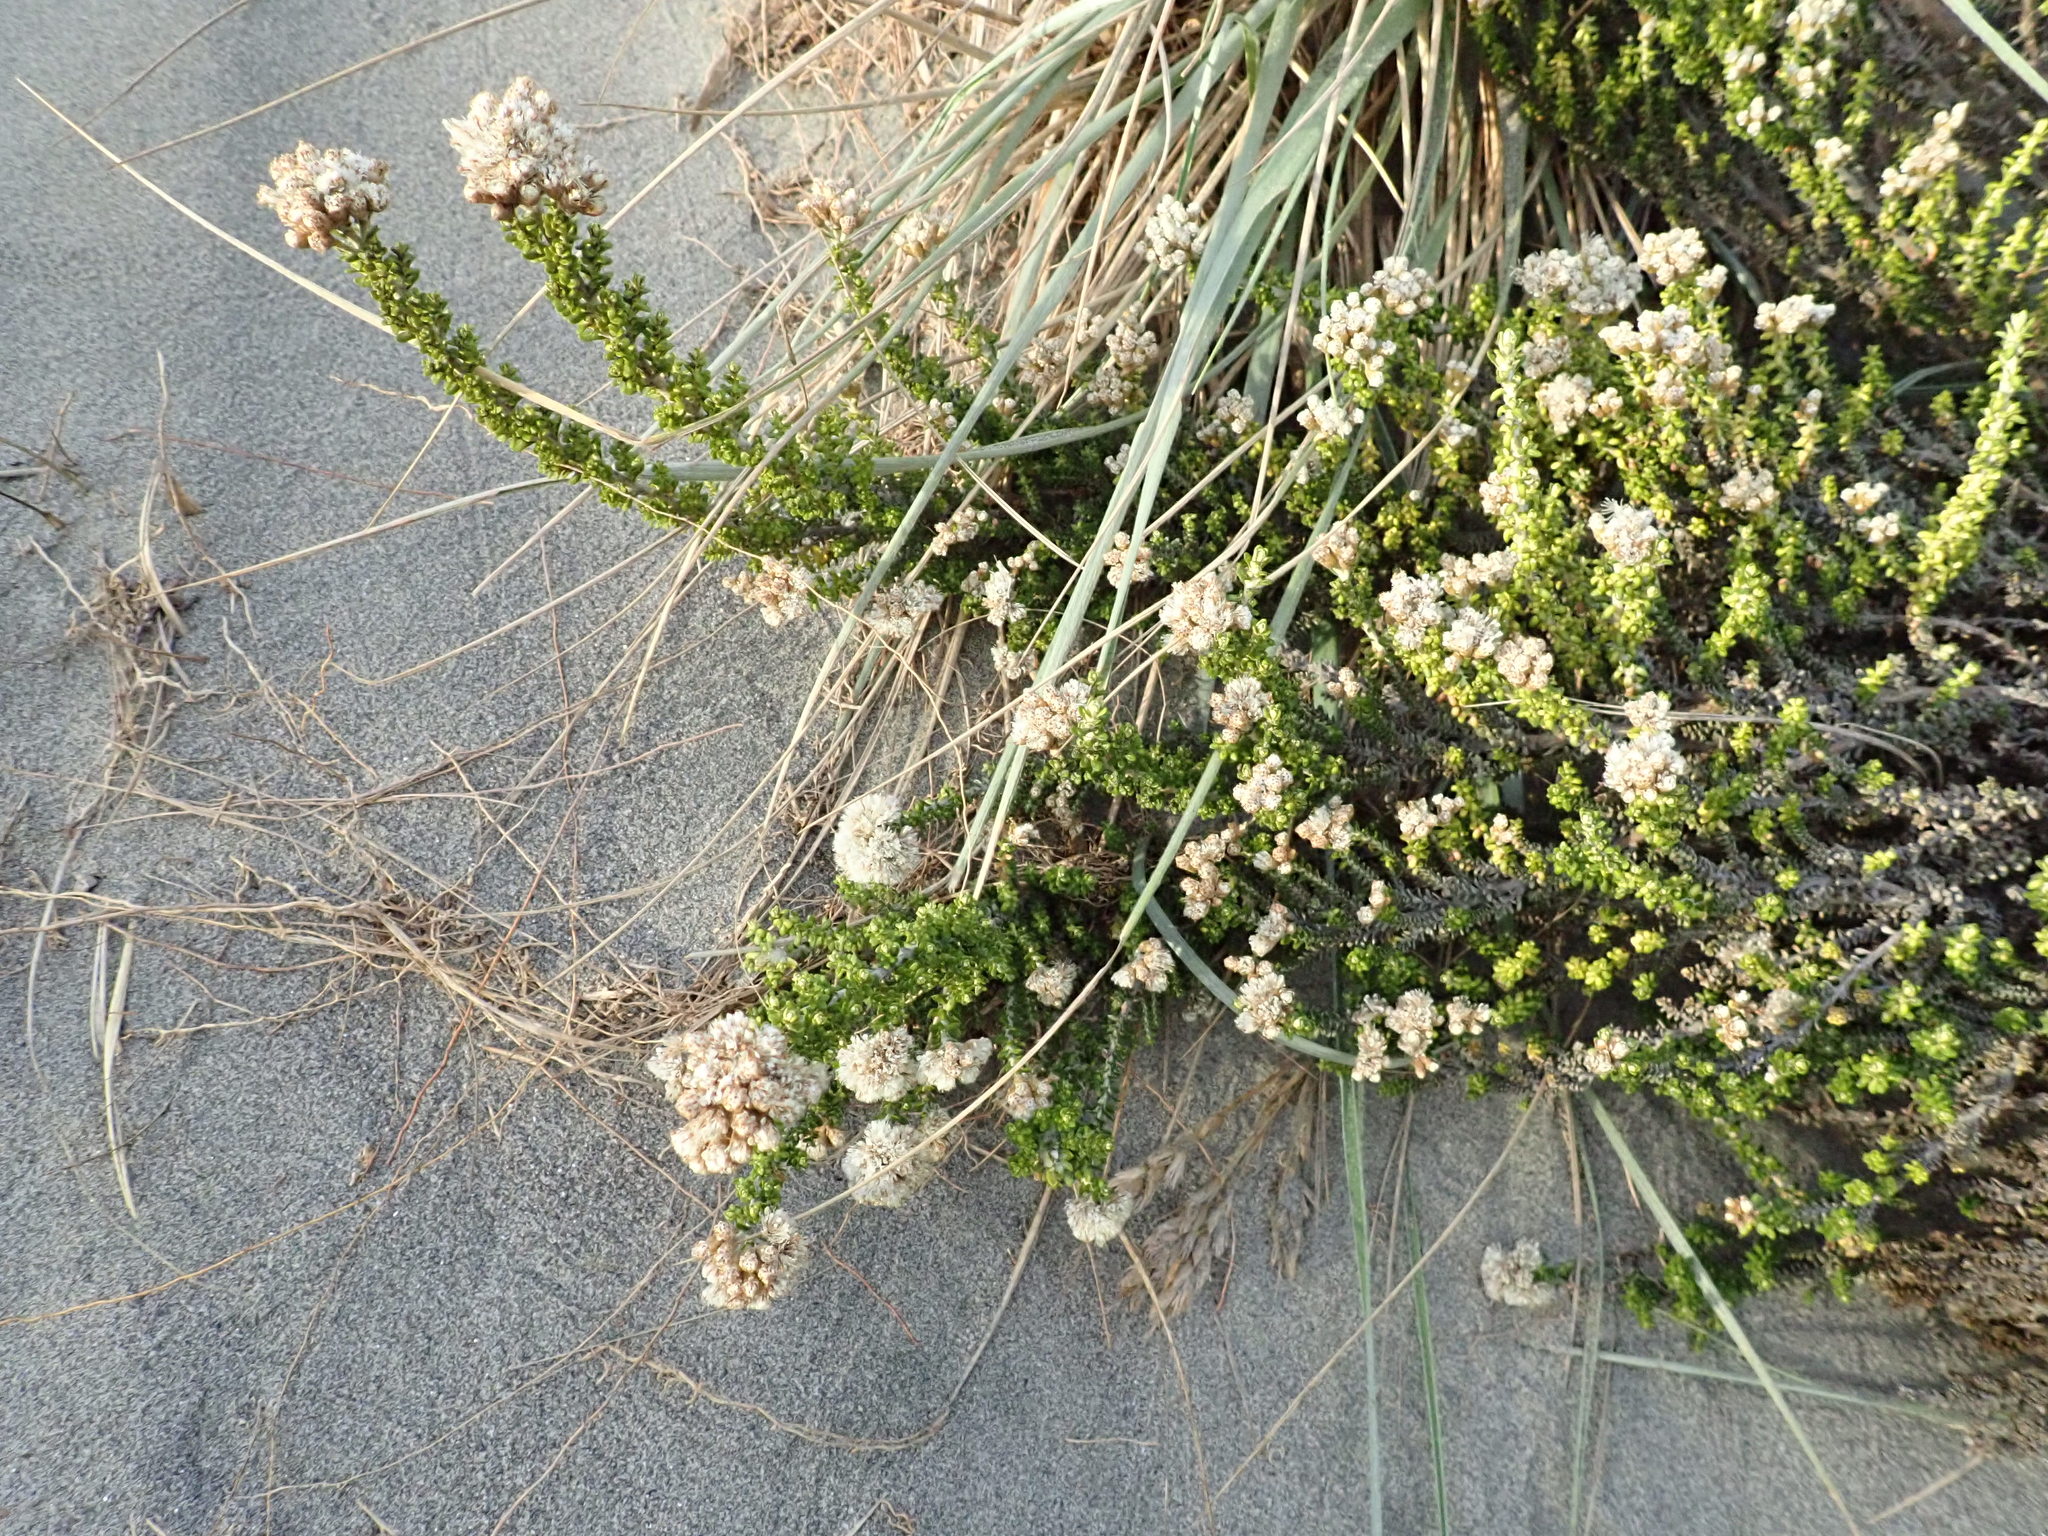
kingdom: Plantae
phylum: Tracheophyta
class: Magnoliopsida
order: Asterales
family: Asteraceae
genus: Ozothamnus
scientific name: Ozothamnus leptophyllus
